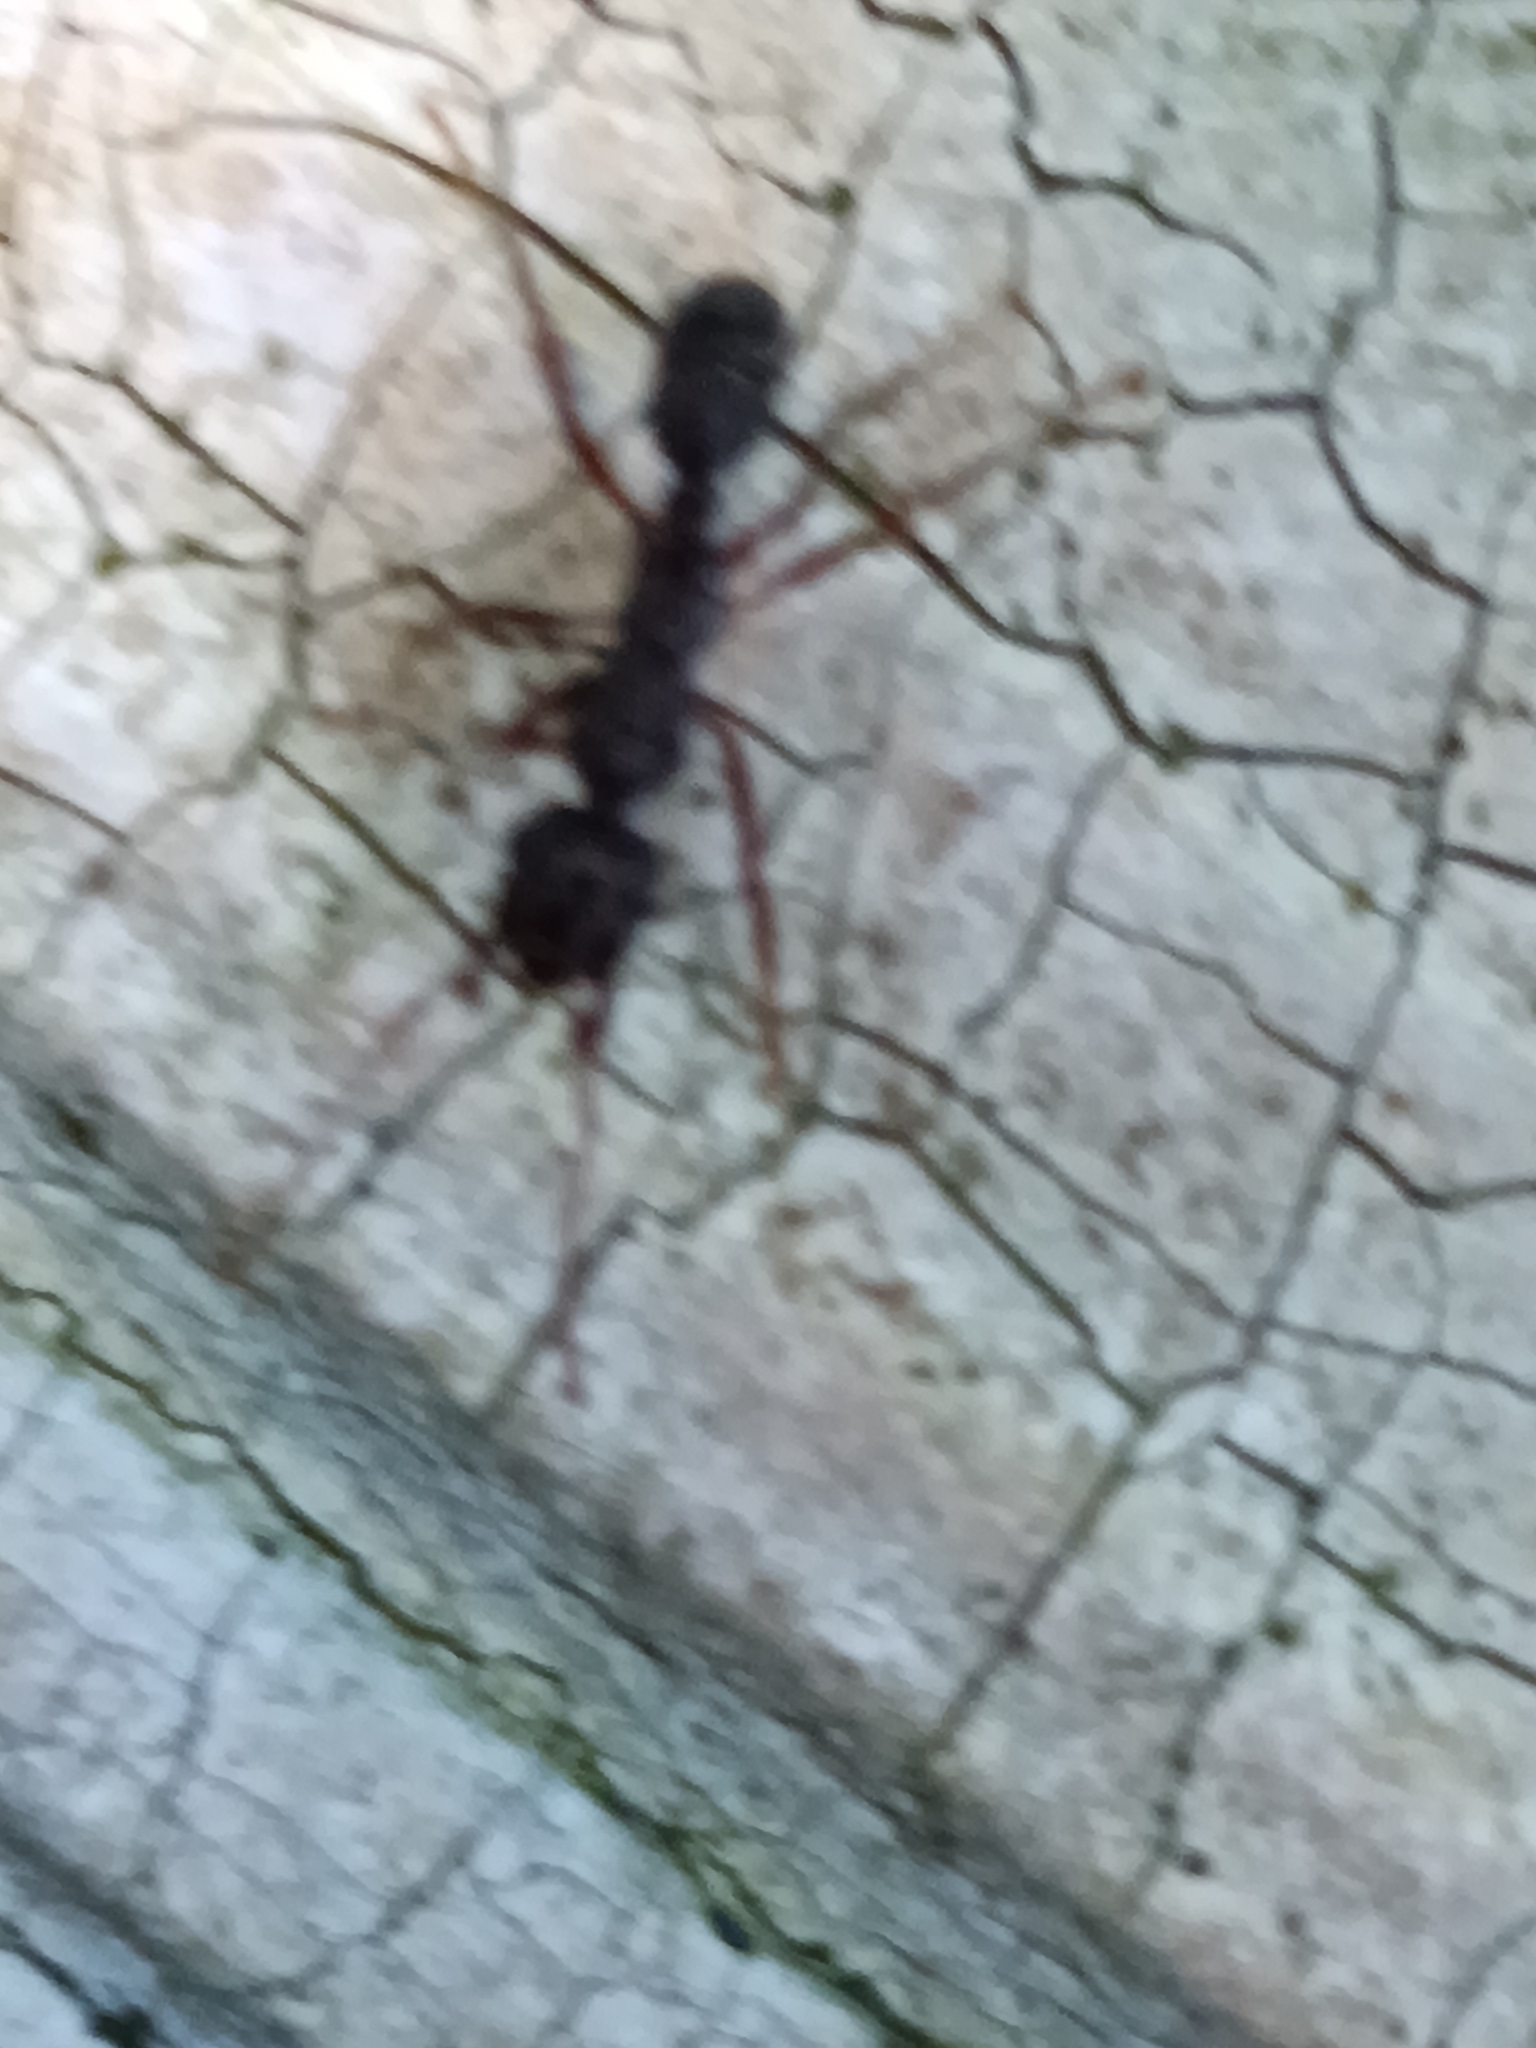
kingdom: Animalia
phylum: Arthropoda
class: Insecta
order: Hymenoptera
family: Formicidae
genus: Ectatomma
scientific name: Ectatomma ruidum
